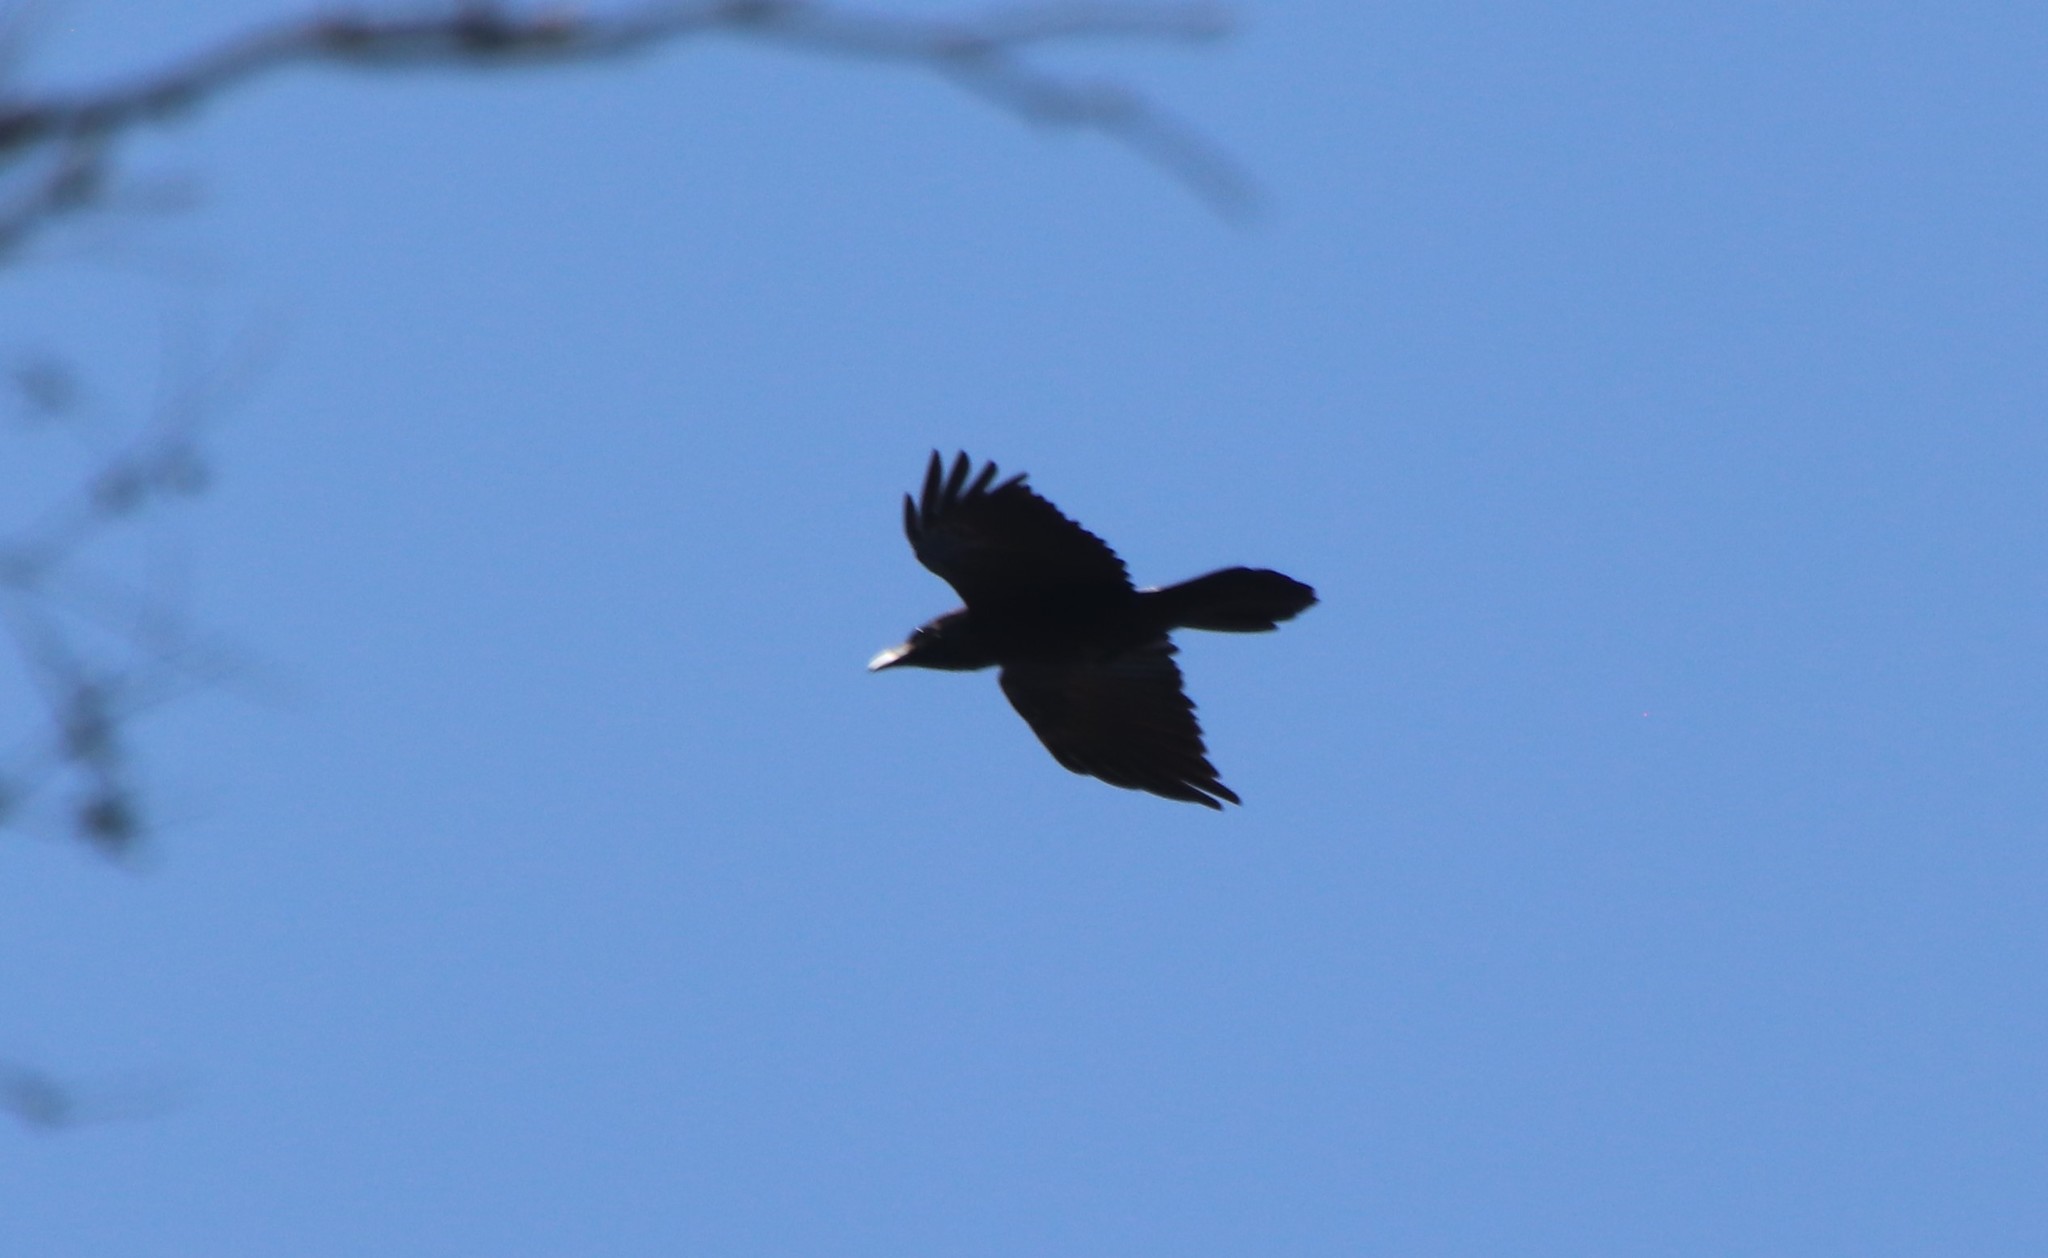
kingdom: Animalia
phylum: Chordata
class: Aves
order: Passeriformes
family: Corvidae
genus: Corvus
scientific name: Corvus corax
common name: Common raven
